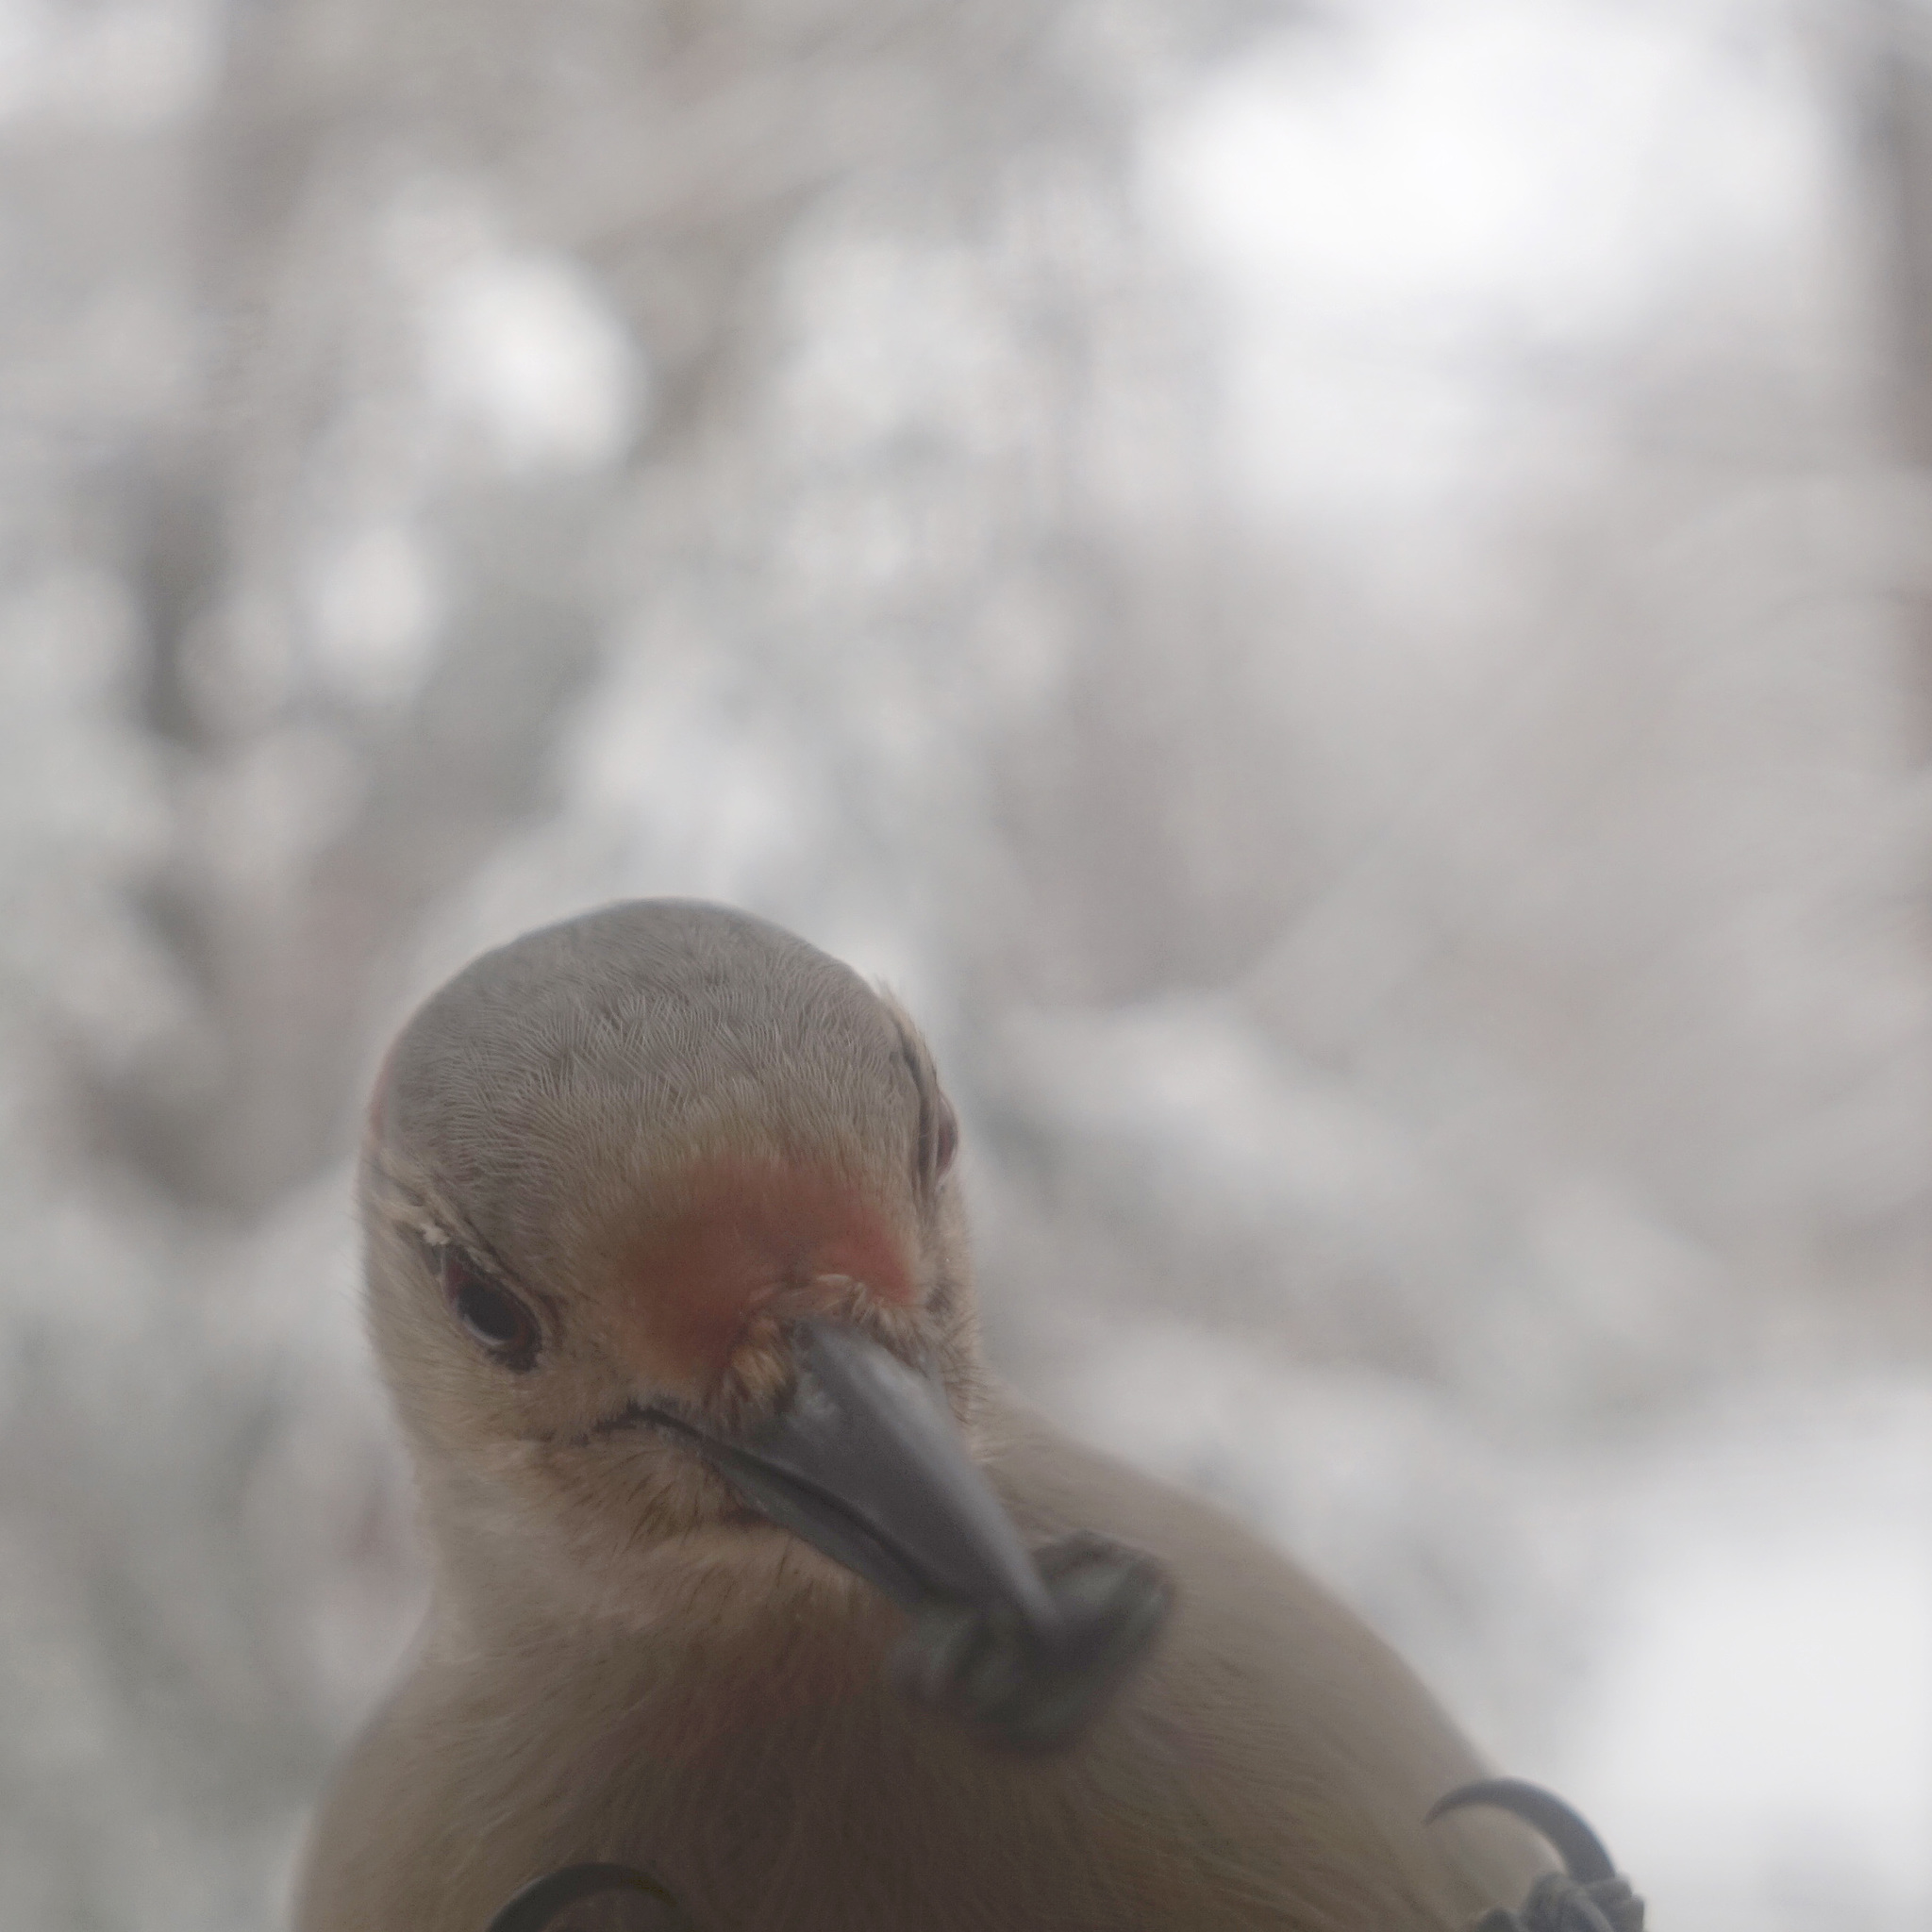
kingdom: Animalia
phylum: Chordata
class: Aves
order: Piciformes
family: Picidae
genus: Melanerpes
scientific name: Melanerpes carolinus
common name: Red-bellied woodpecker
